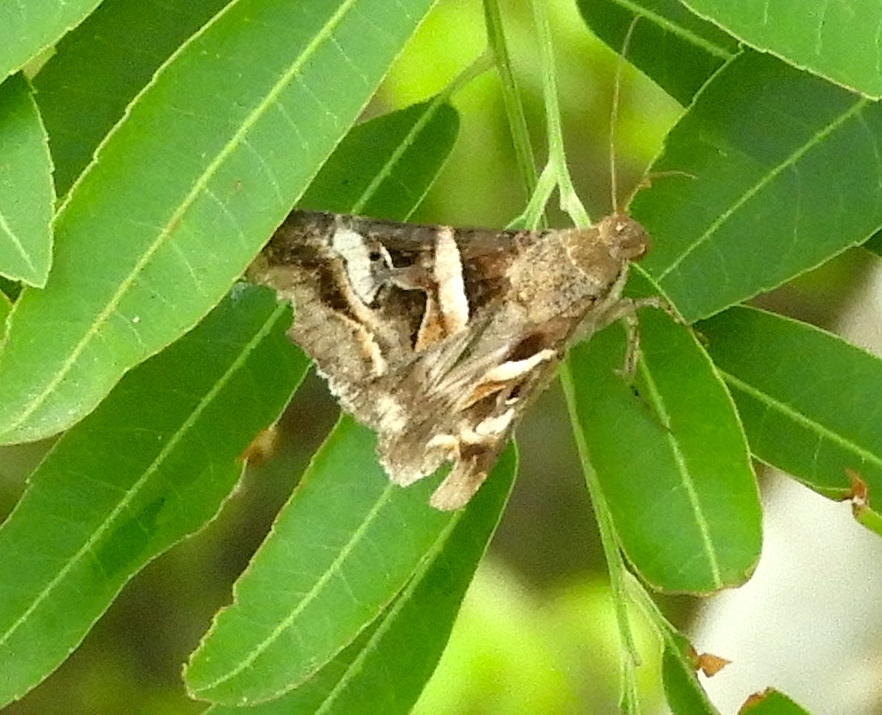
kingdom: Animalia
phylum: Arthropoda
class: Insecta
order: Lepidoptera
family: Erebidae
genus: Melipotis
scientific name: Melipotis perpendicularis
